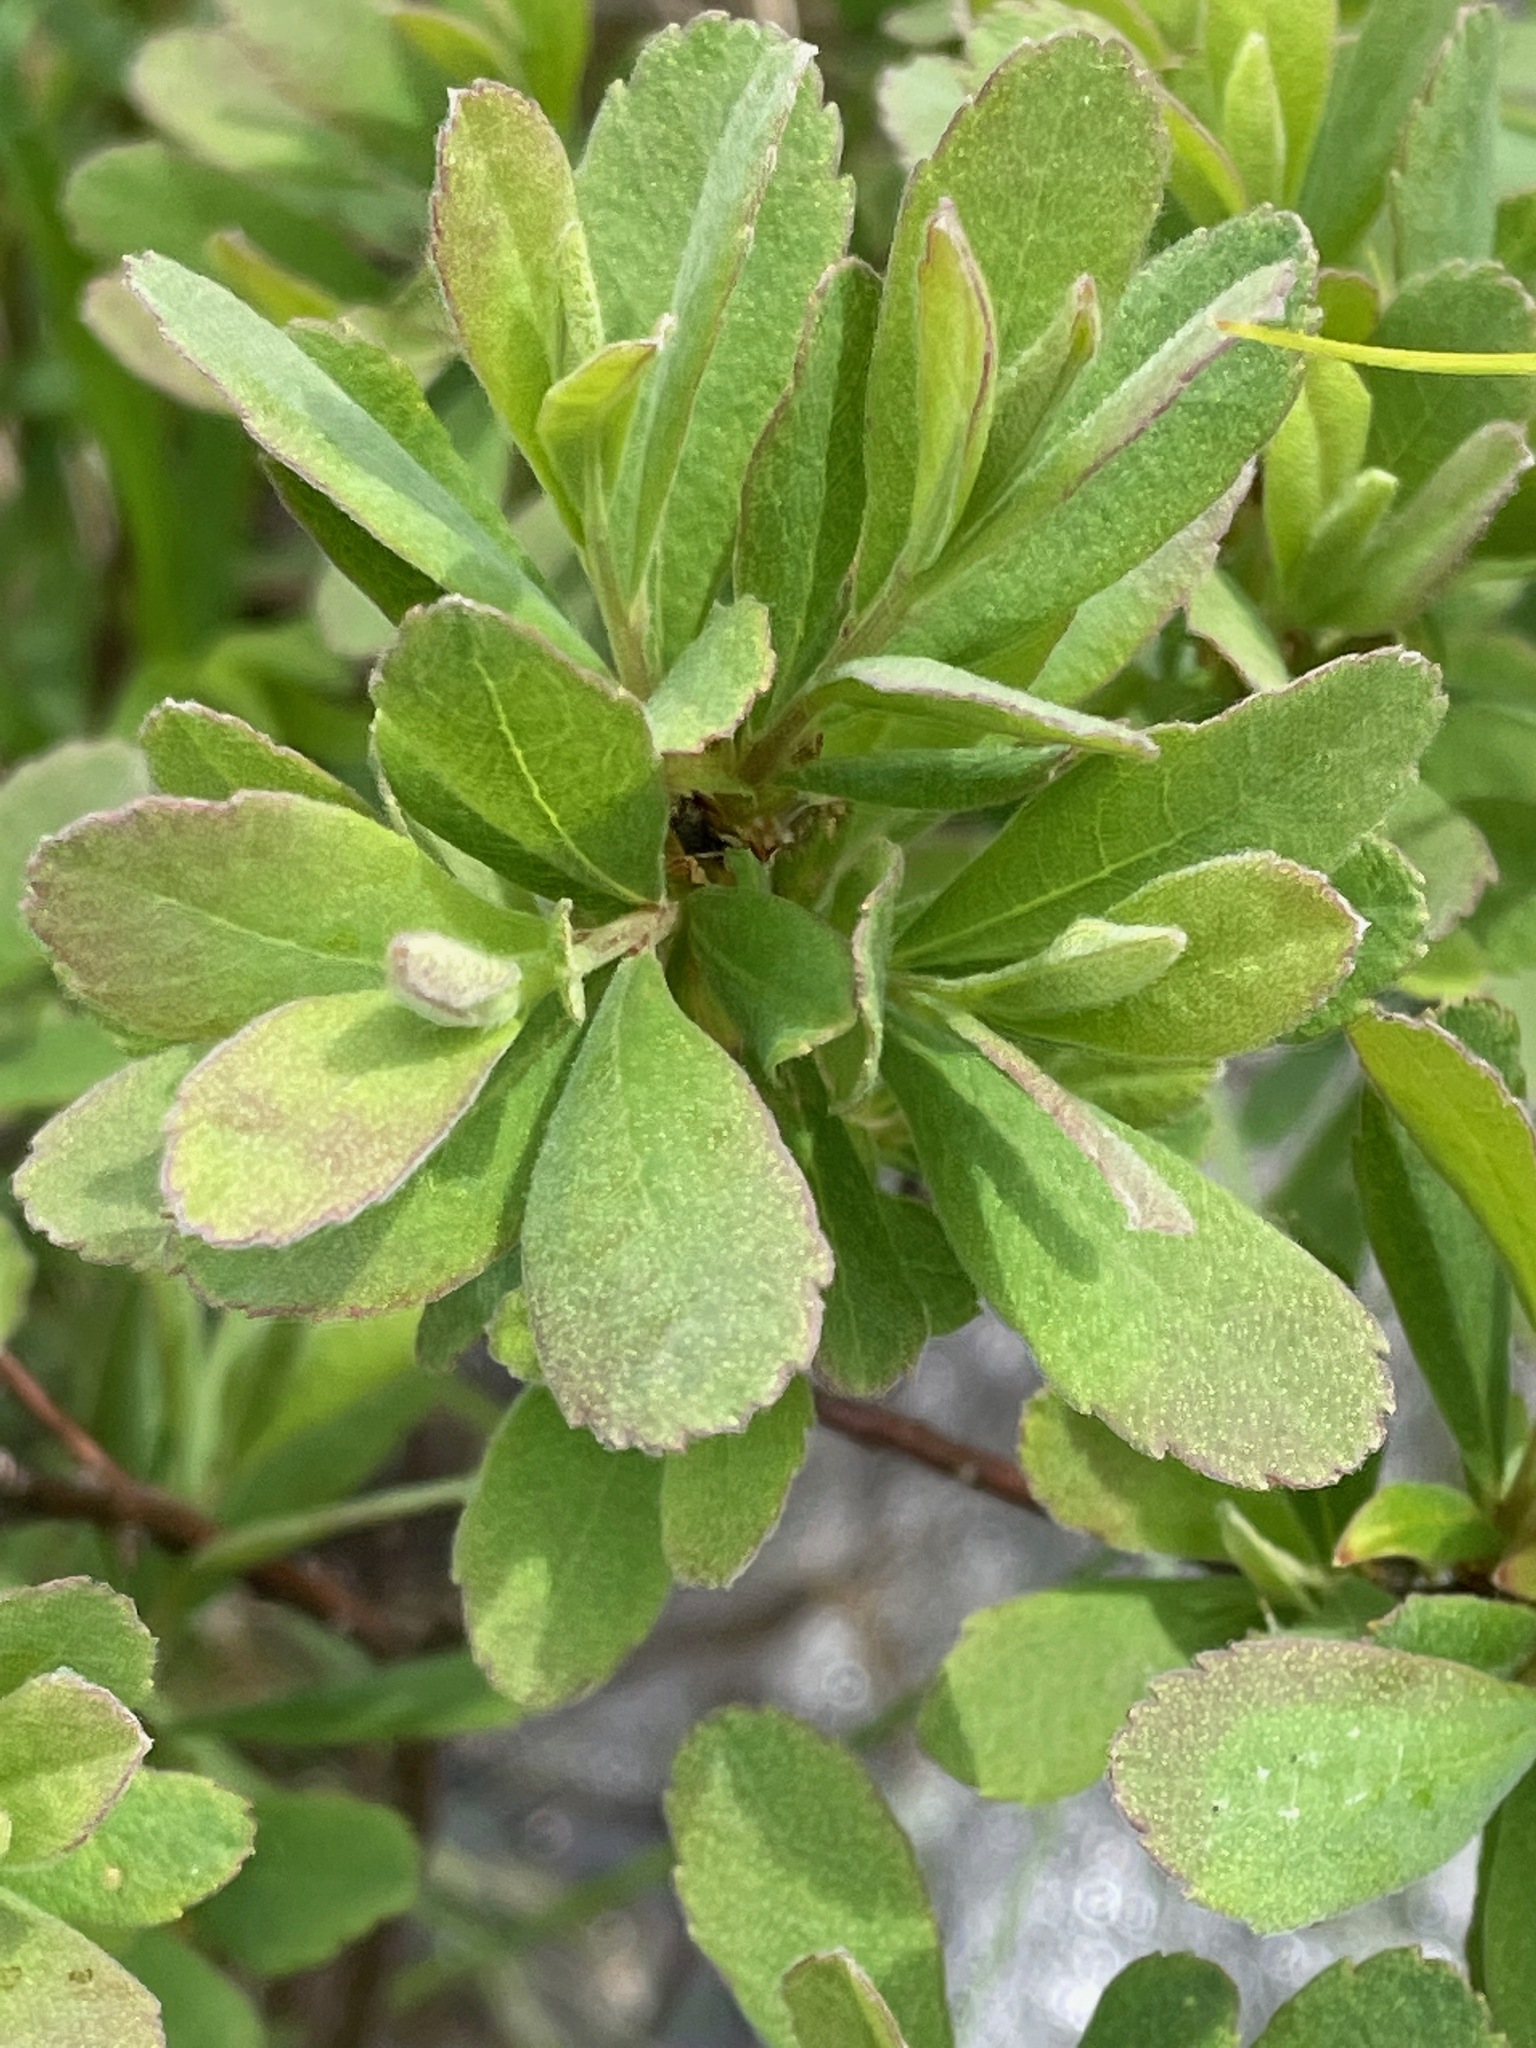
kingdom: Plantae
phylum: Tracheophyta
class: Magnoliopsida
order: Fagales
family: Myricaceae
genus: Myrica
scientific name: Myrica gale
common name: Sweet gale
